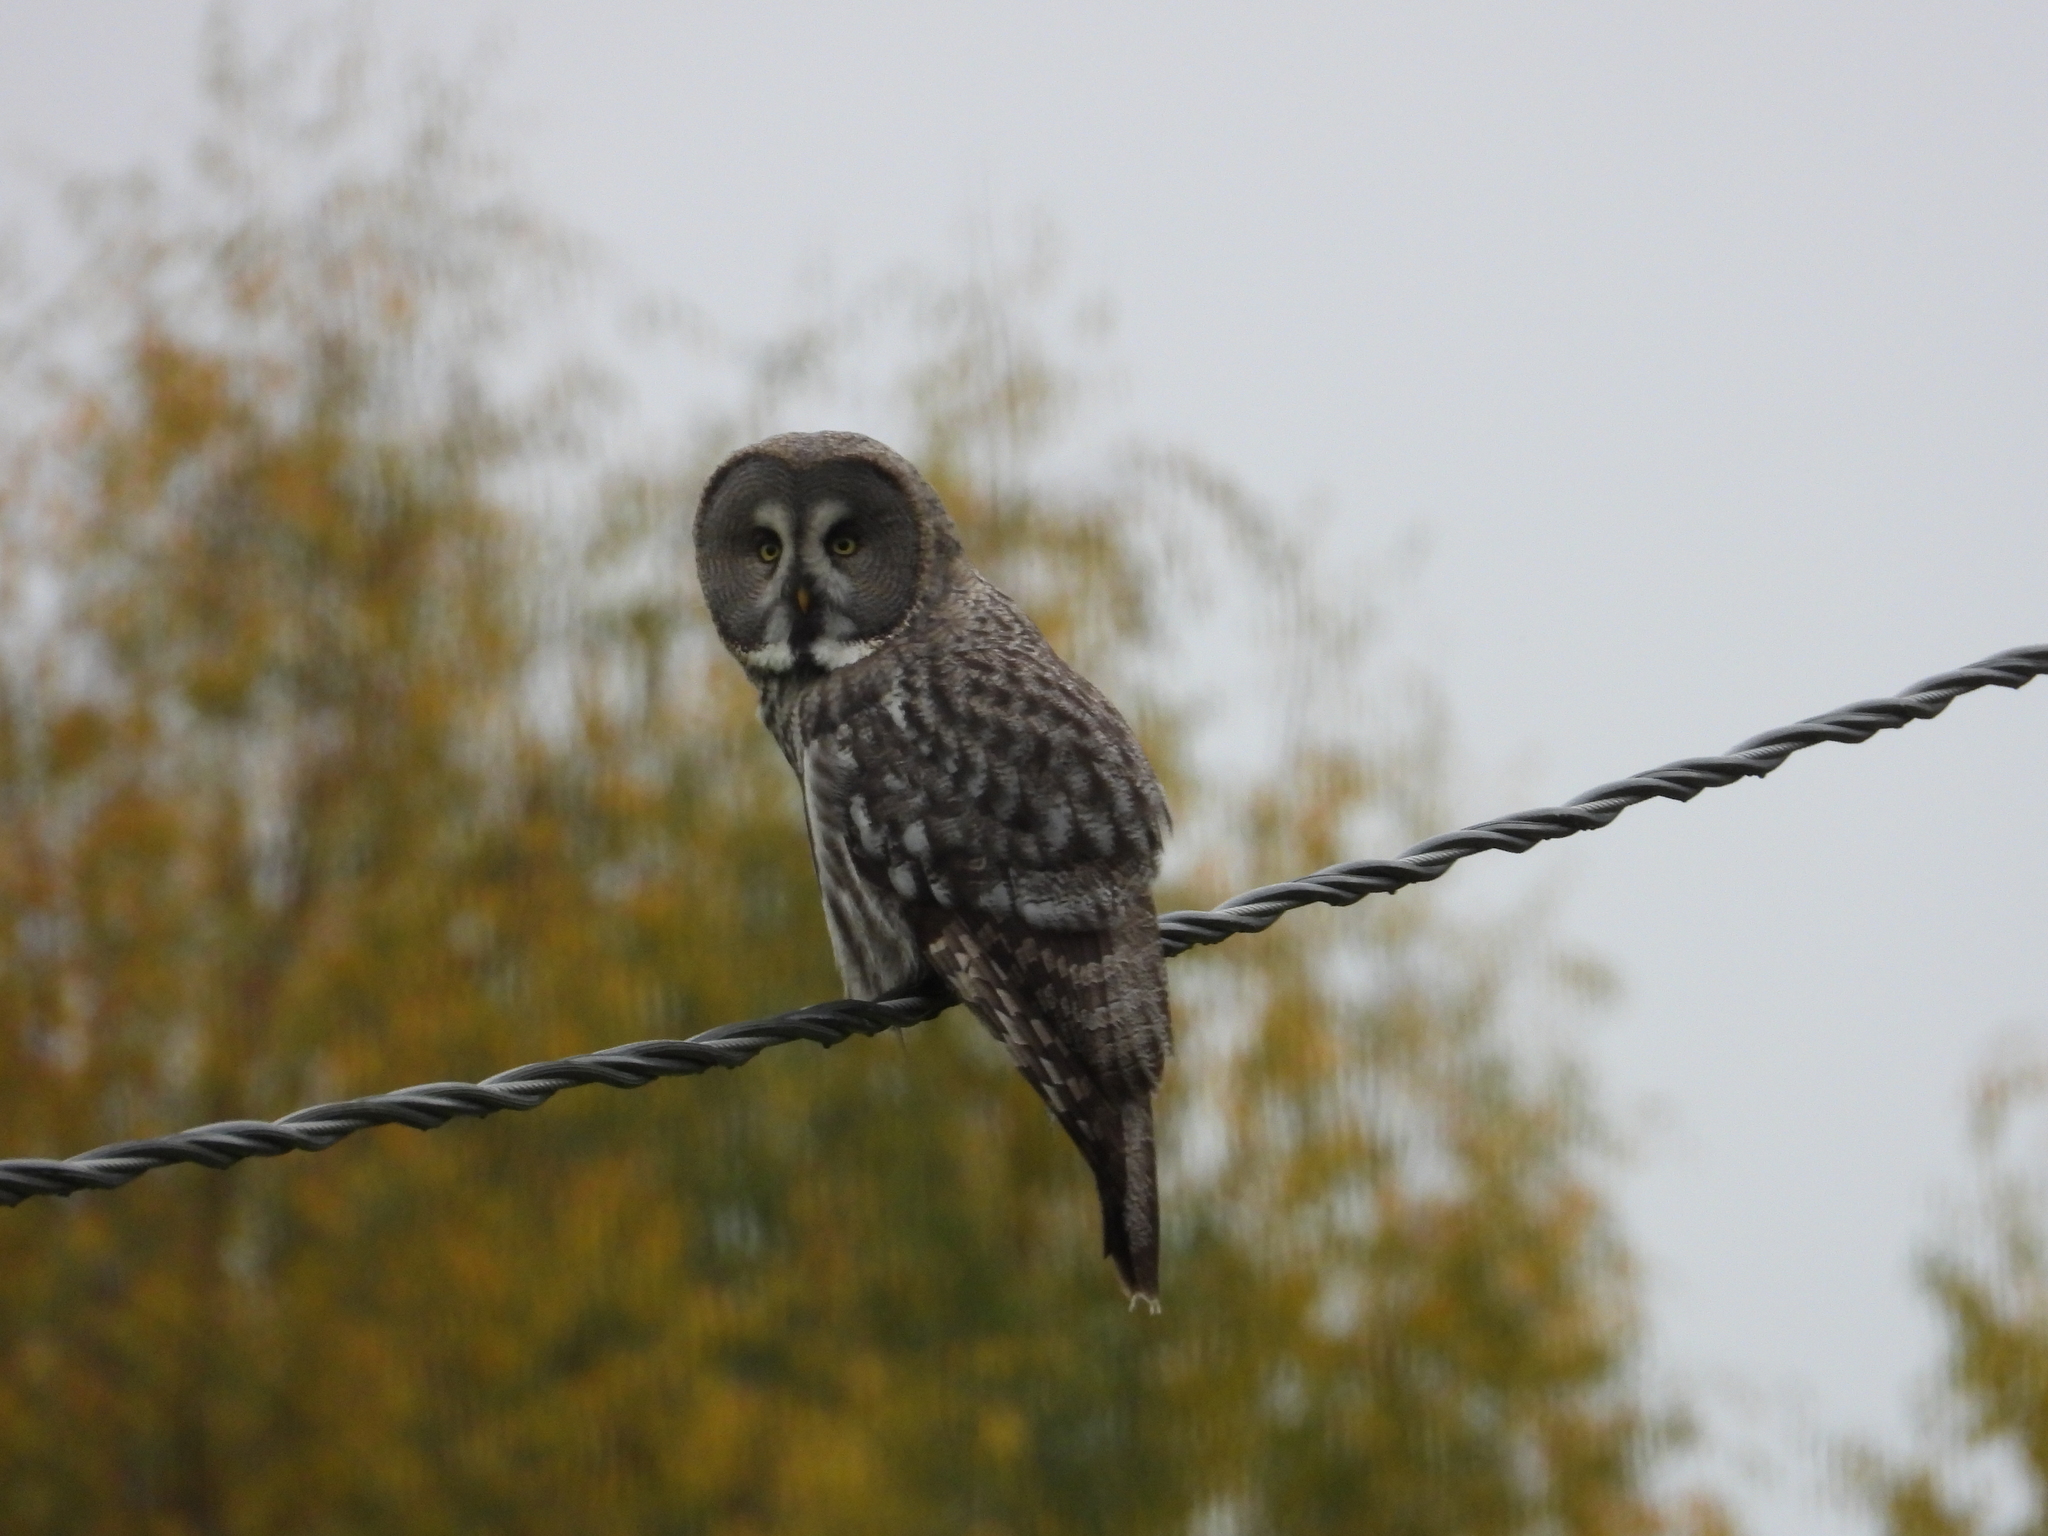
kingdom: Animalia
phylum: Chordata
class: Aves
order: Strigiformes
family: Strigidae
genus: Strix
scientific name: Strix nebulosa
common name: Great grey owl
